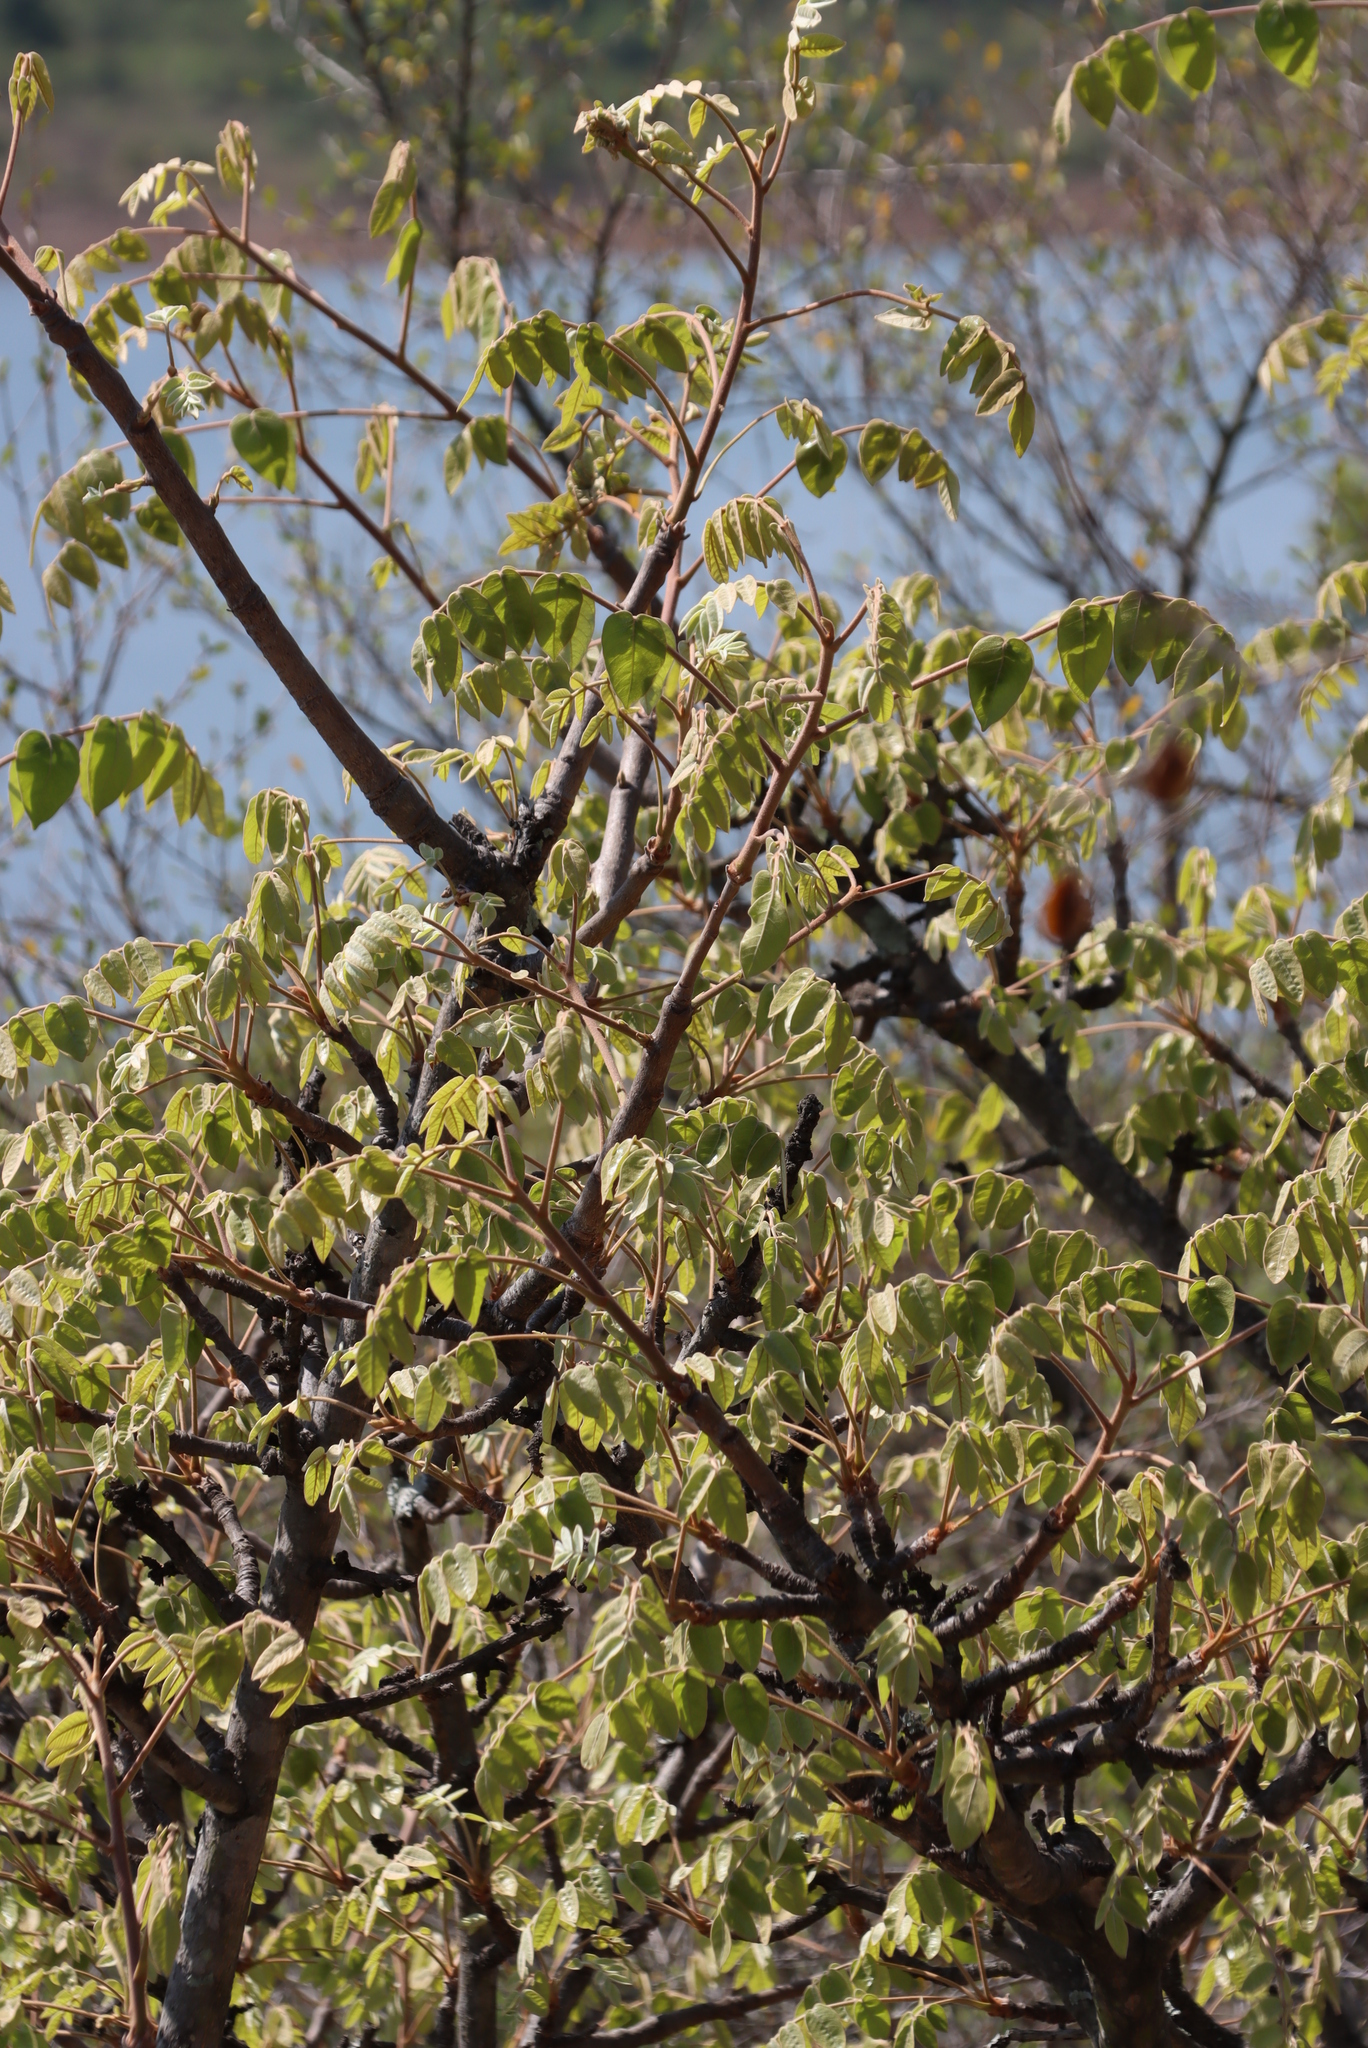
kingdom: Plantae
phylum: Tracheophyta
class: Magnoliopsida
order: Sapindales
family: Anacardiaceae
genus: Lannea
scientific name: Lannea discolor
